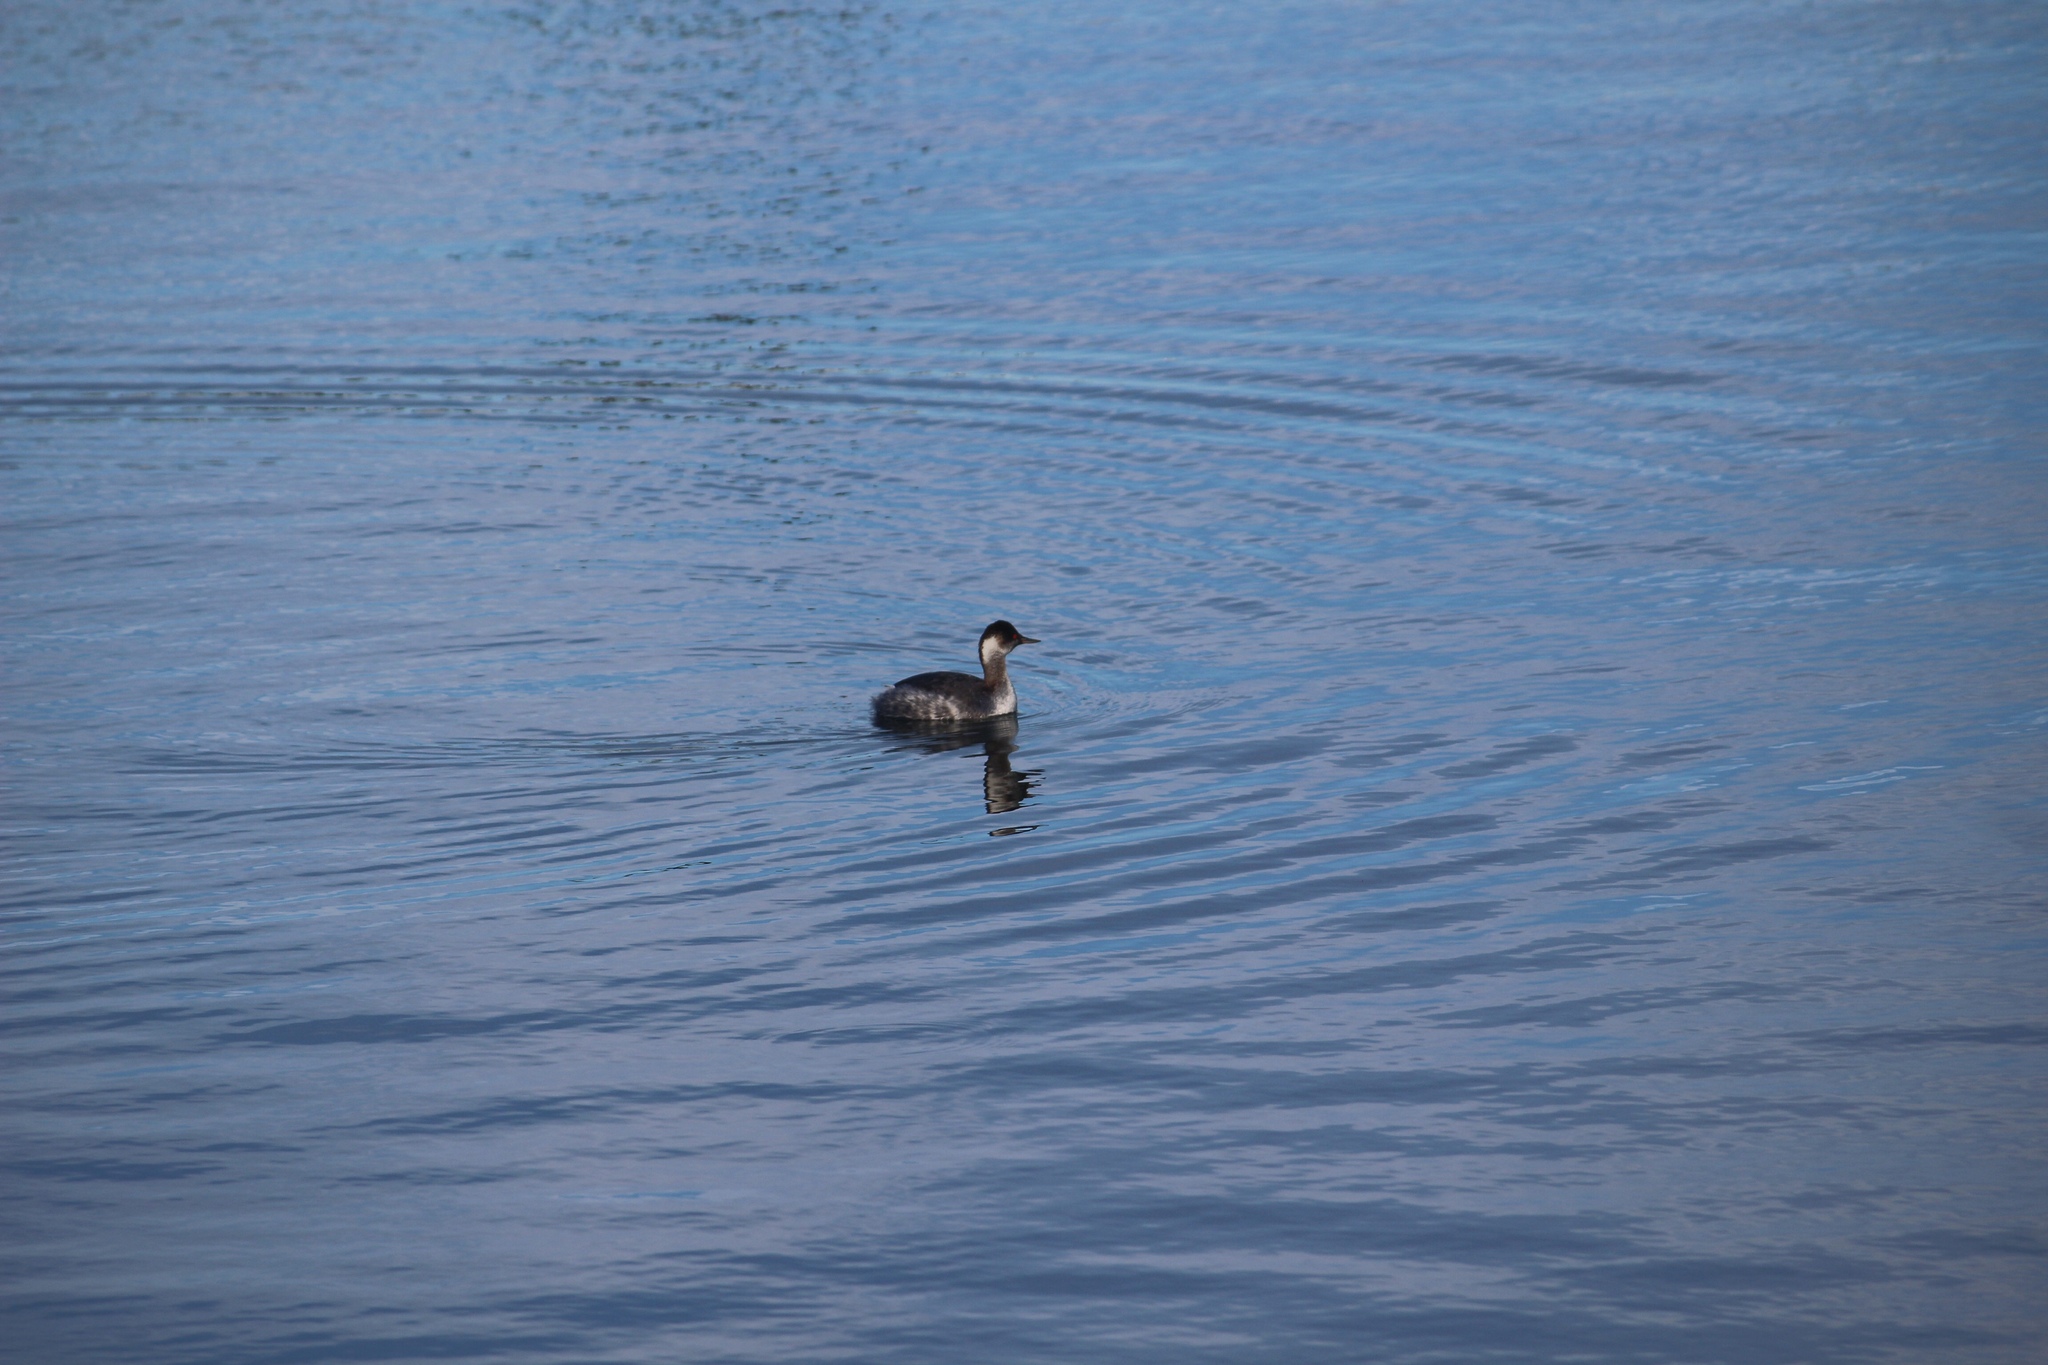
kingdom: Animalia
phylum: Chordata
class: Aves
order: Podicipediformes
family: Podicipedidae
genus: Podiceps
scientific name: Podiceps nigricollis
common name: Black-necked grebe
